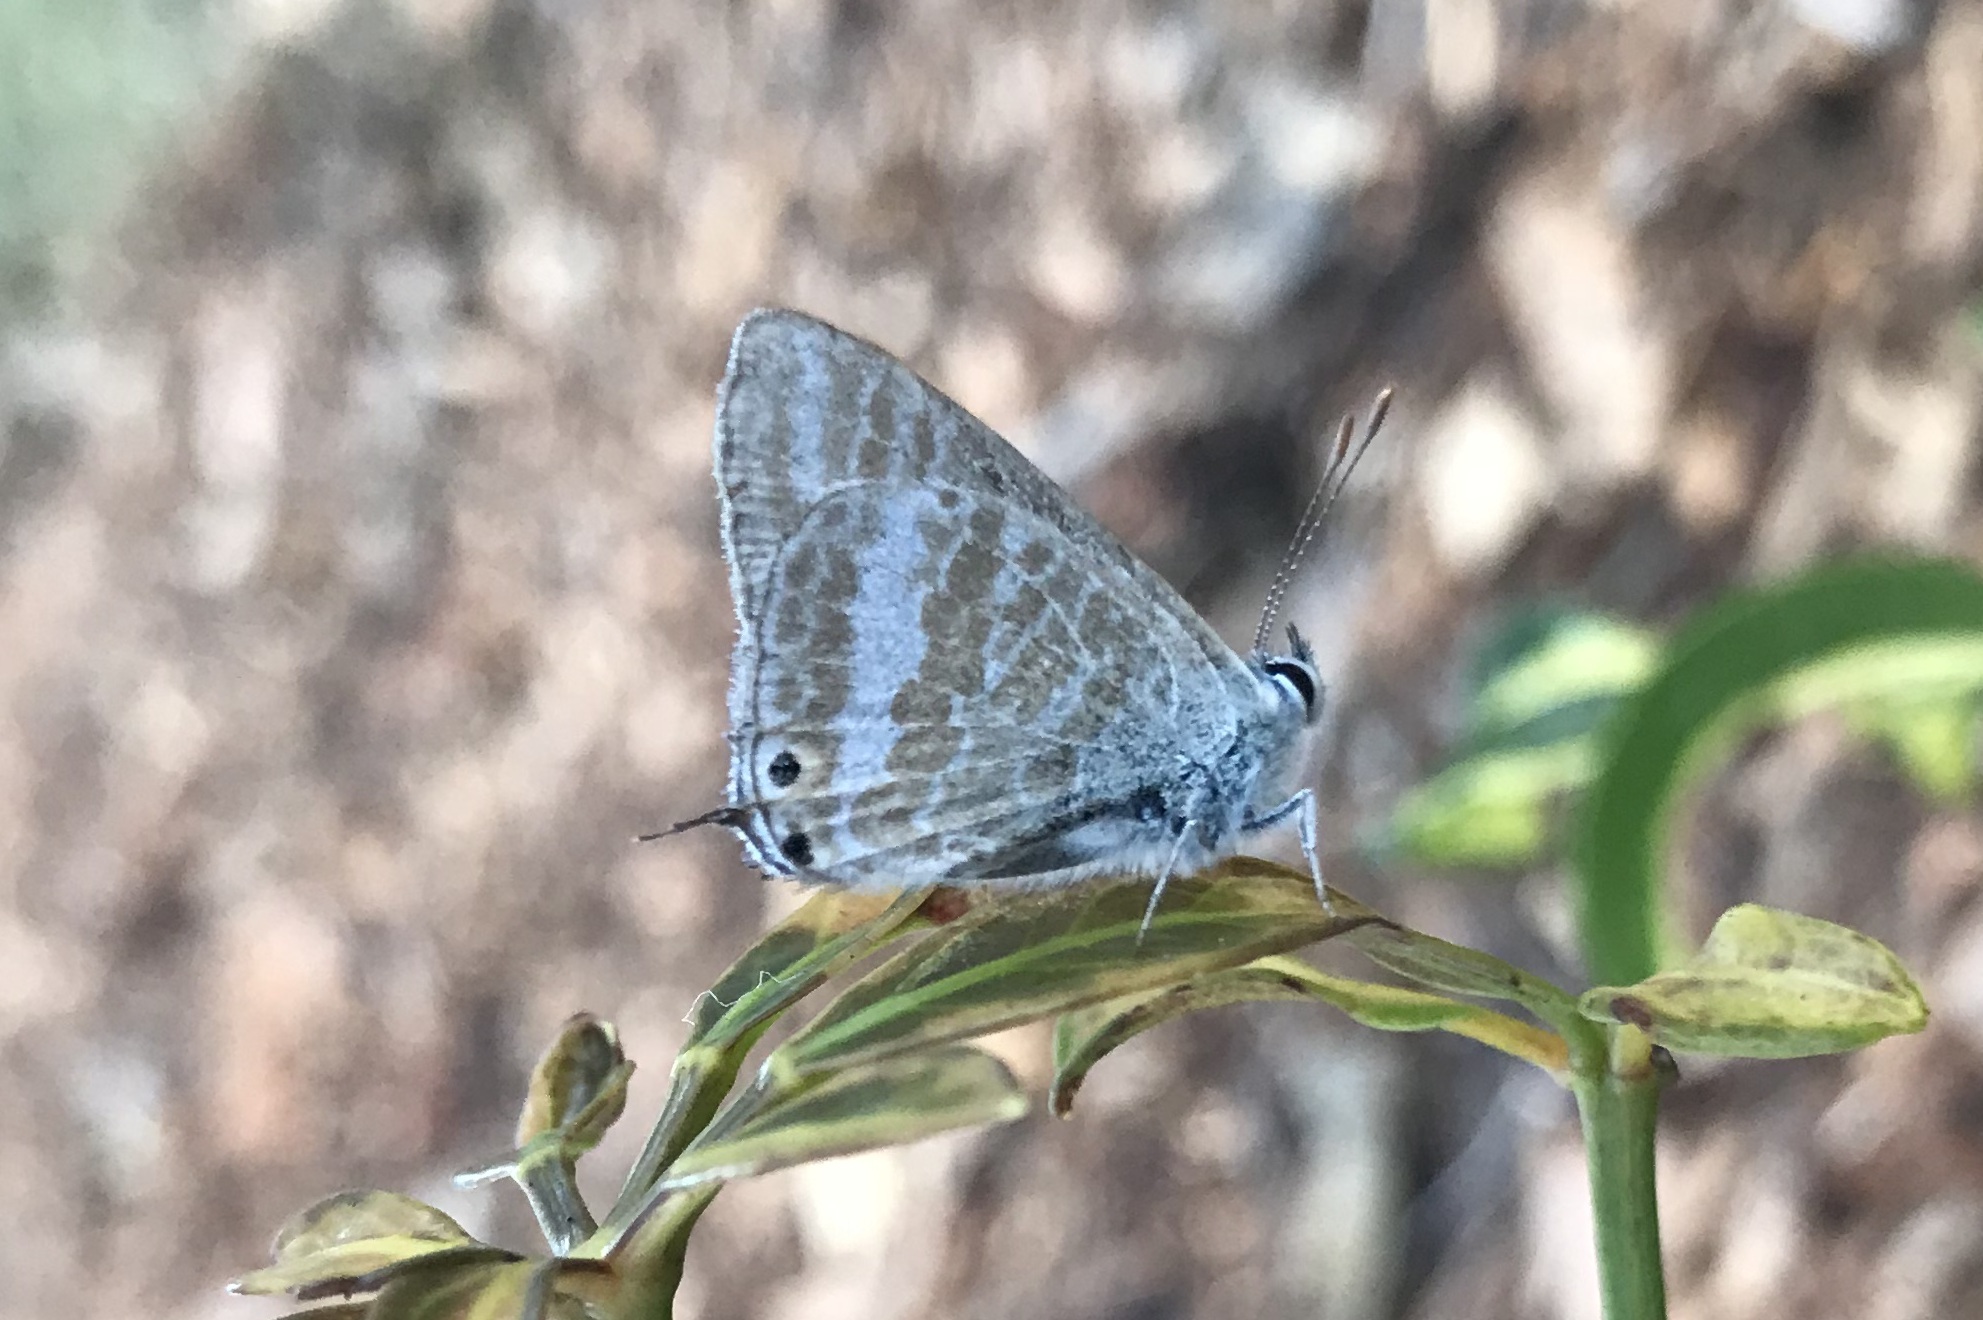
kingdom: Animalia
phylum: Arthropoda
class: Insecta
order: Lepidoptera
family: Lycaenidae
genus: Lampides
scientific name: Lampides boeticus
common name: Long-tailed blue
